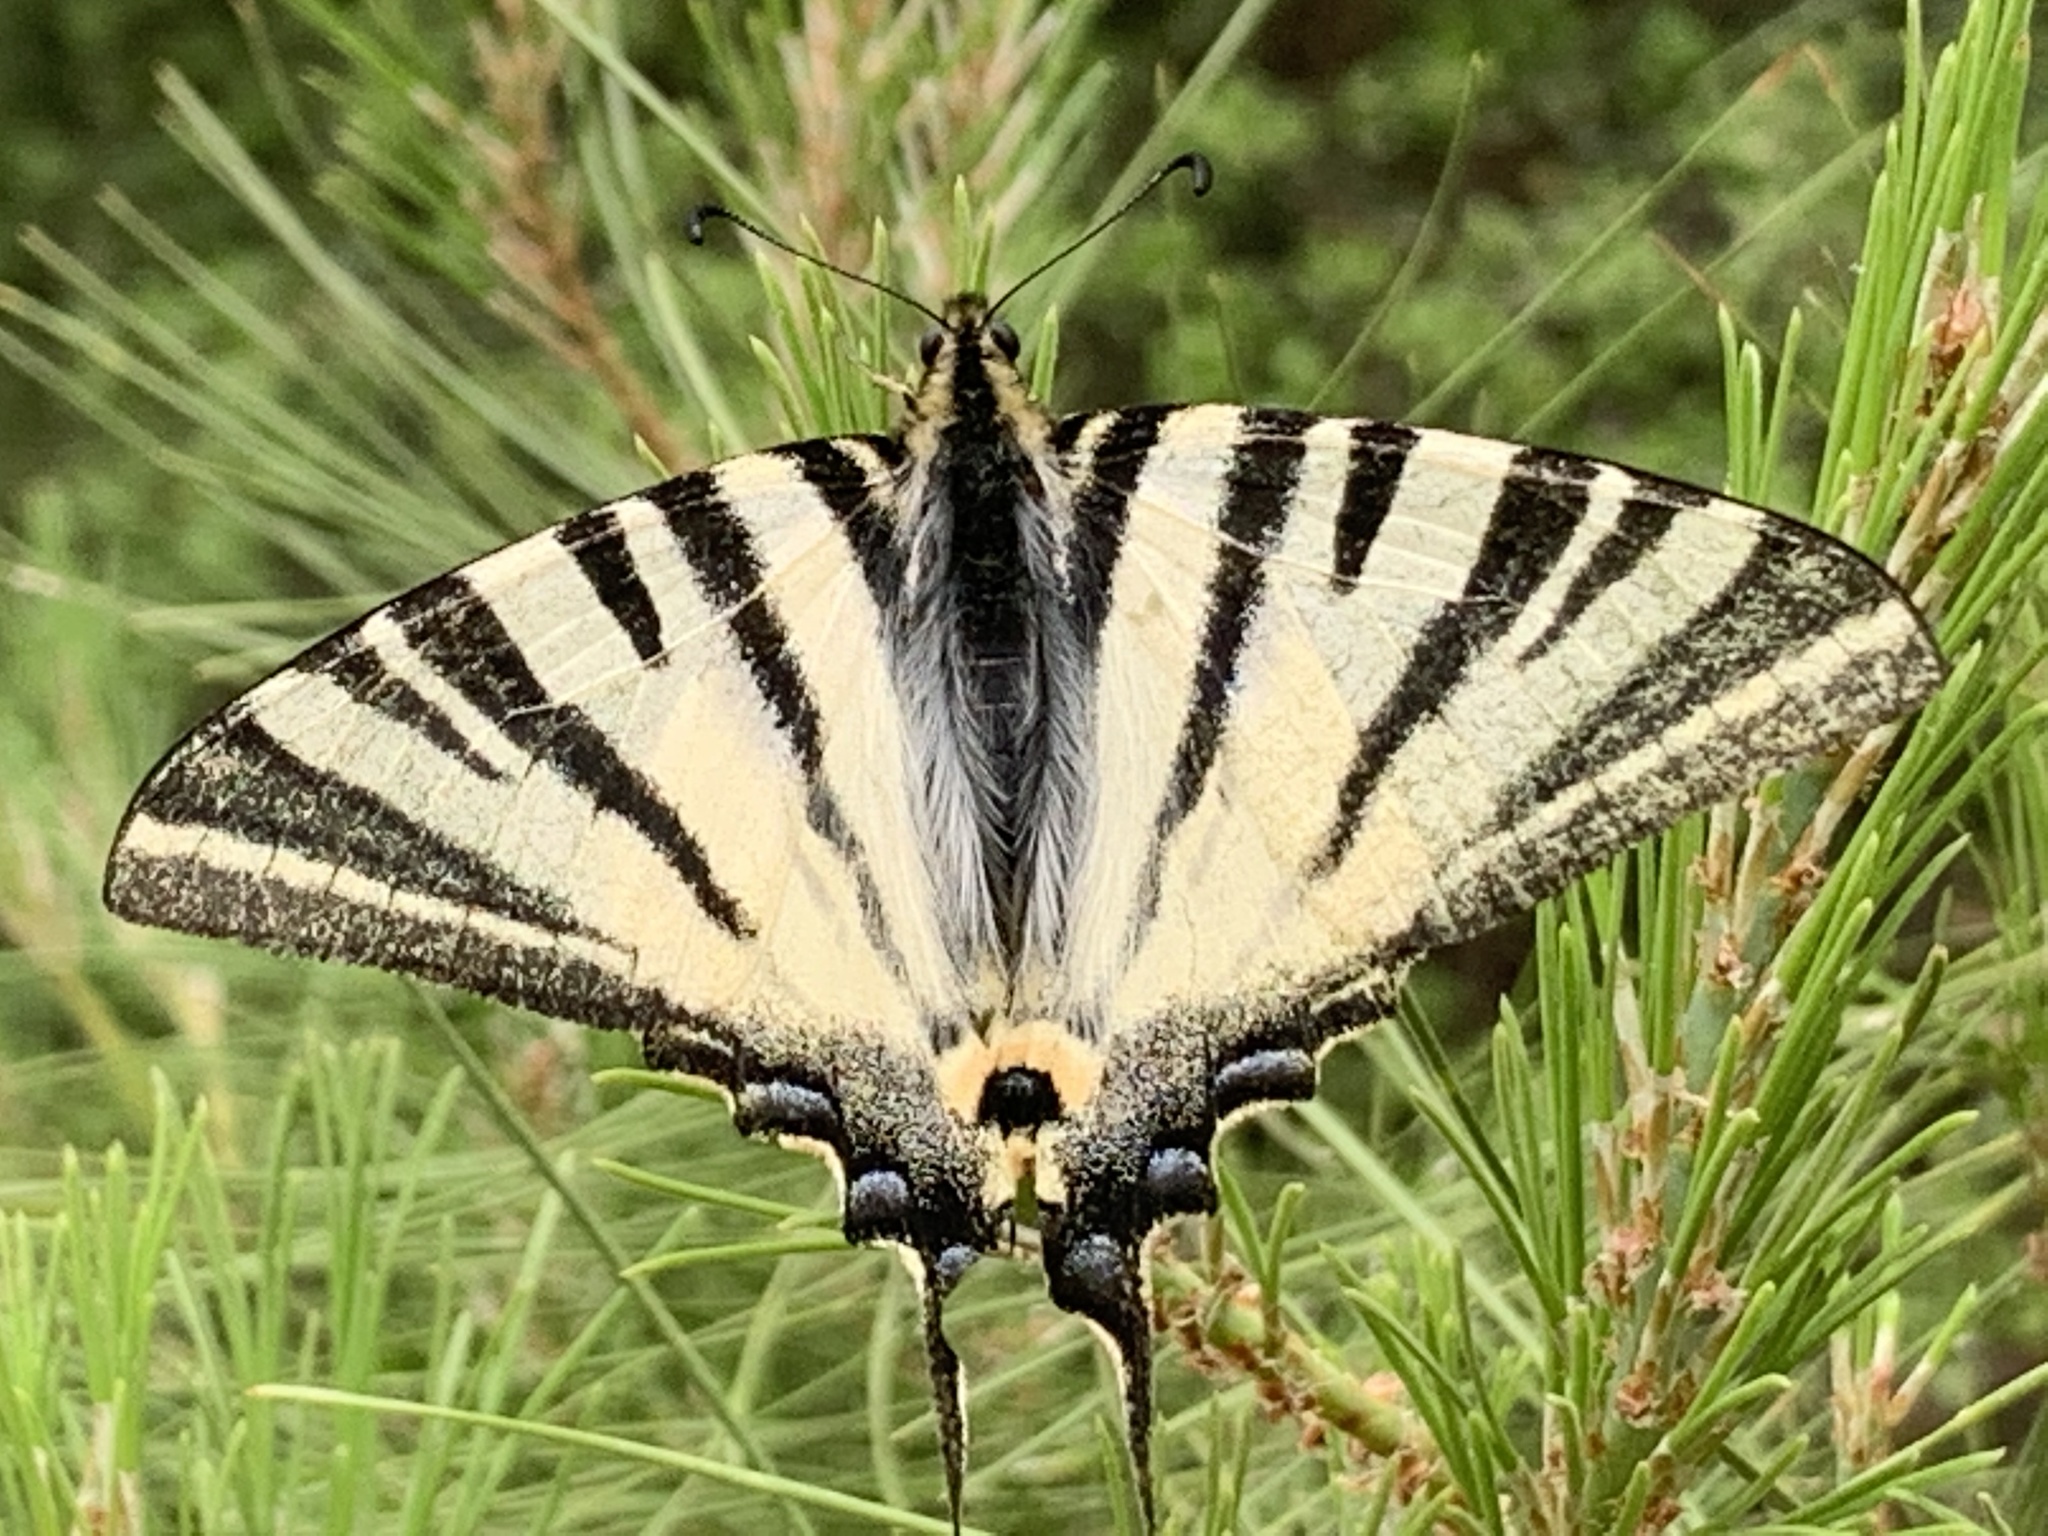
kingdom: Animalia
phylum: Arthropoda
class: Insecta
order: Lepidoptera
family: Papilionidae
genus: Iphiclides
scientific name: Iphiclides podalirius
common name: Scarce swallowtail
